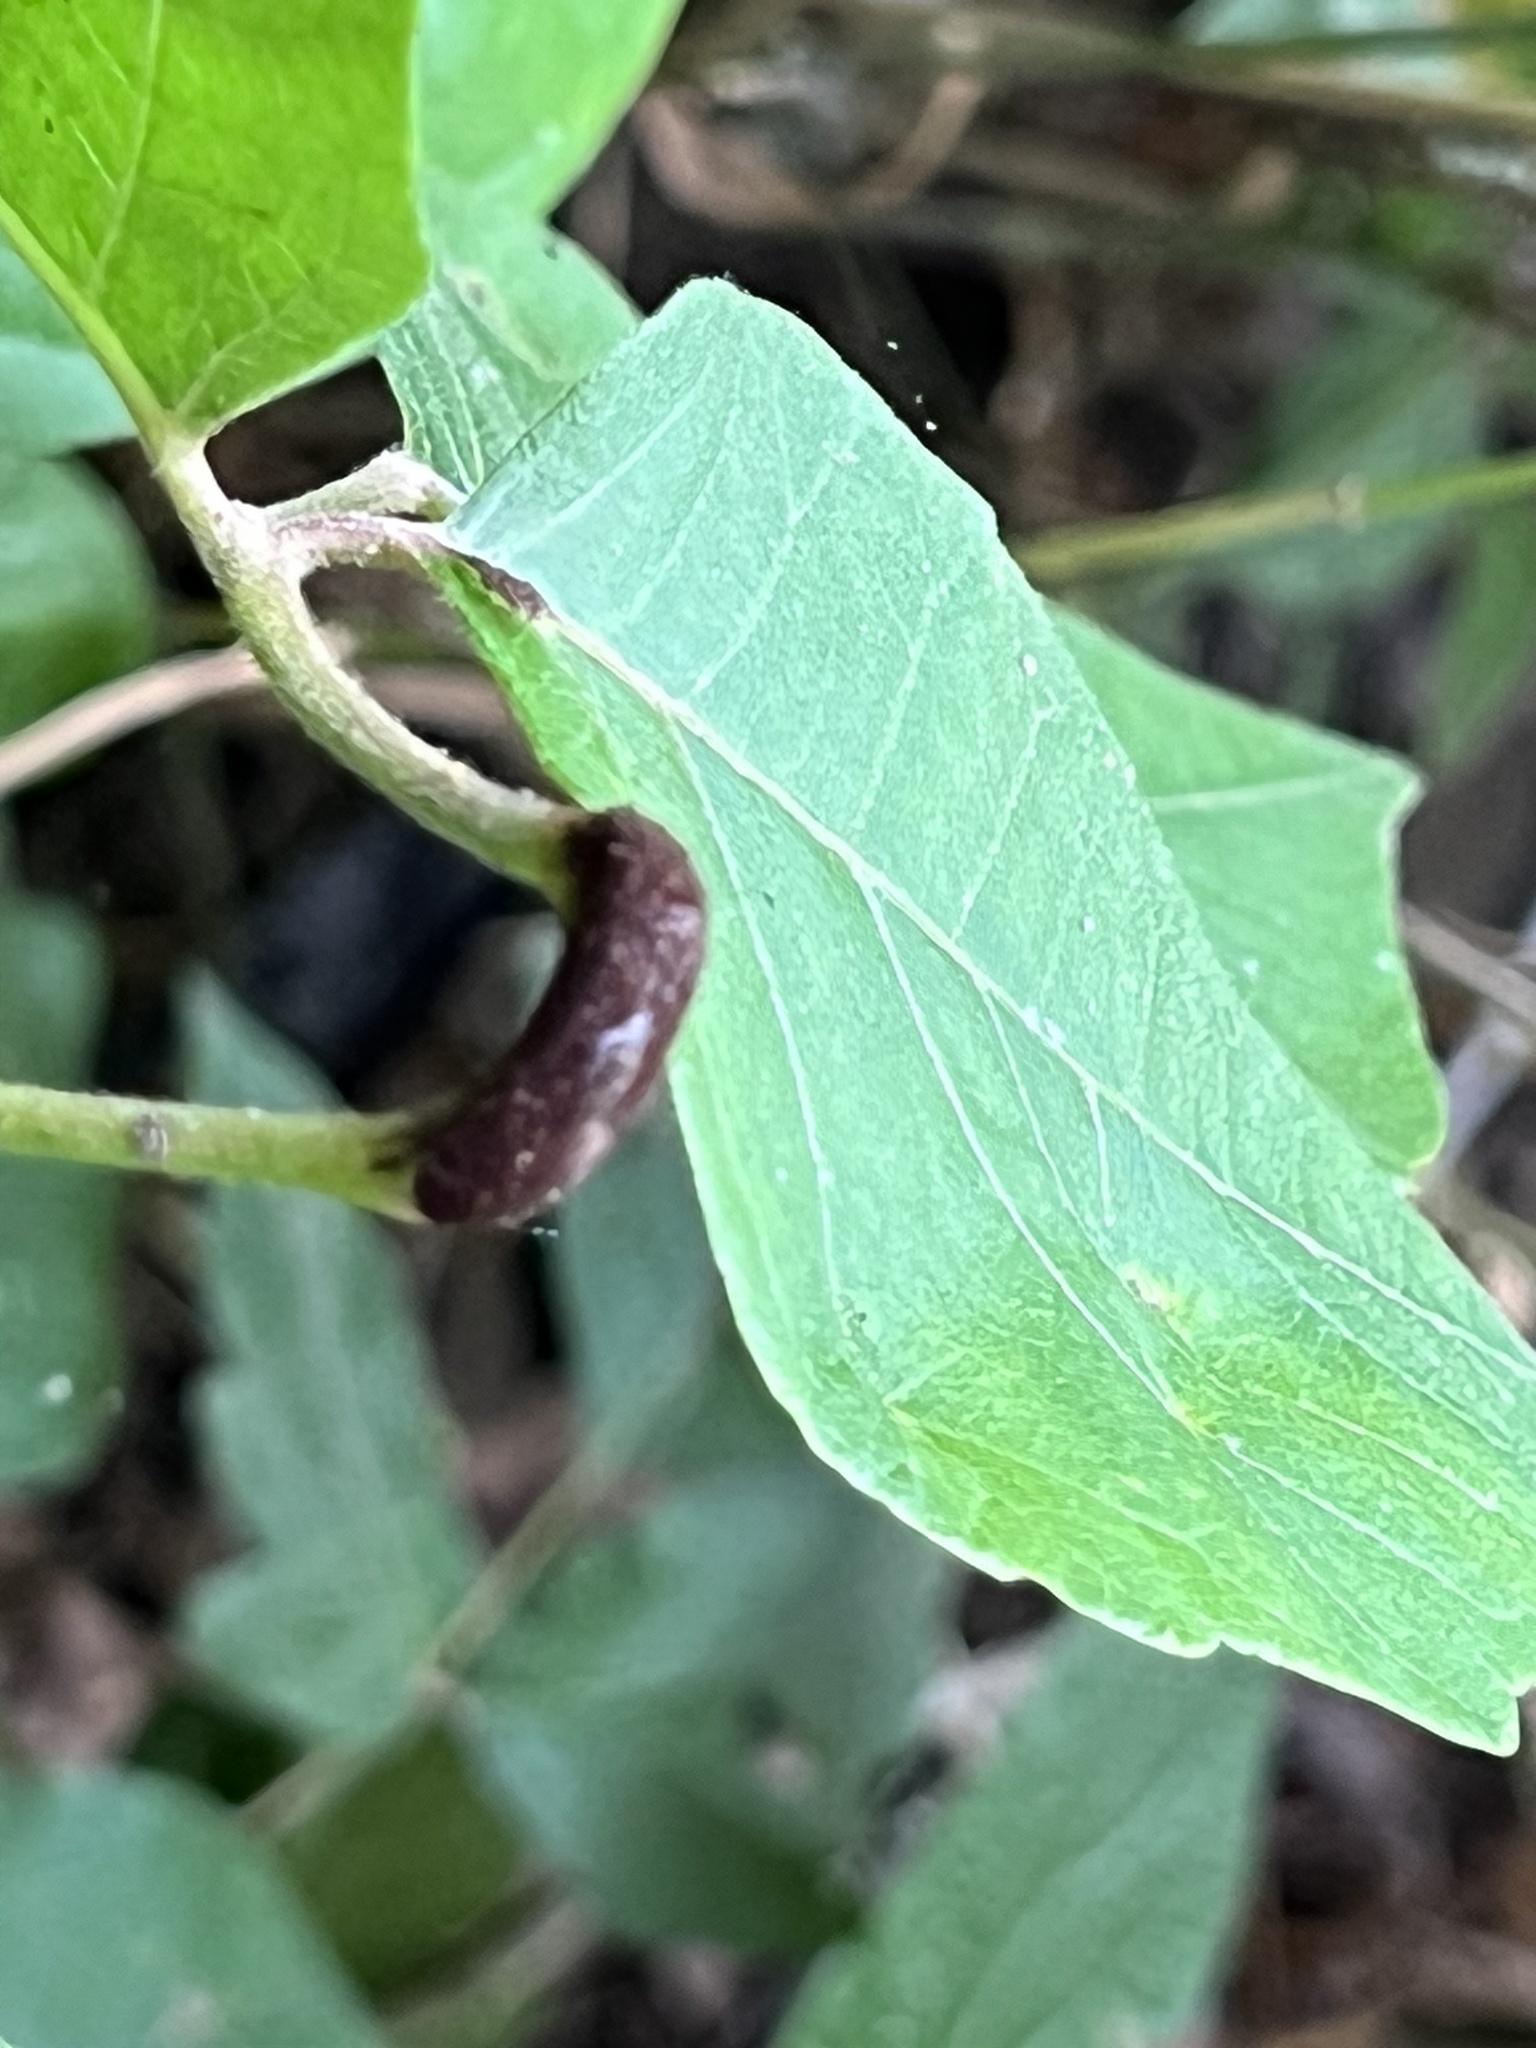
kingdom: Fungi
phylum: Basidiomycota
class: Pucciniomycetes
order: Pucciniales
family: Pileolariaceae
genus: Pileolaria
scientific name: Pileolaria brevipes
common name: Poison ivy rust
